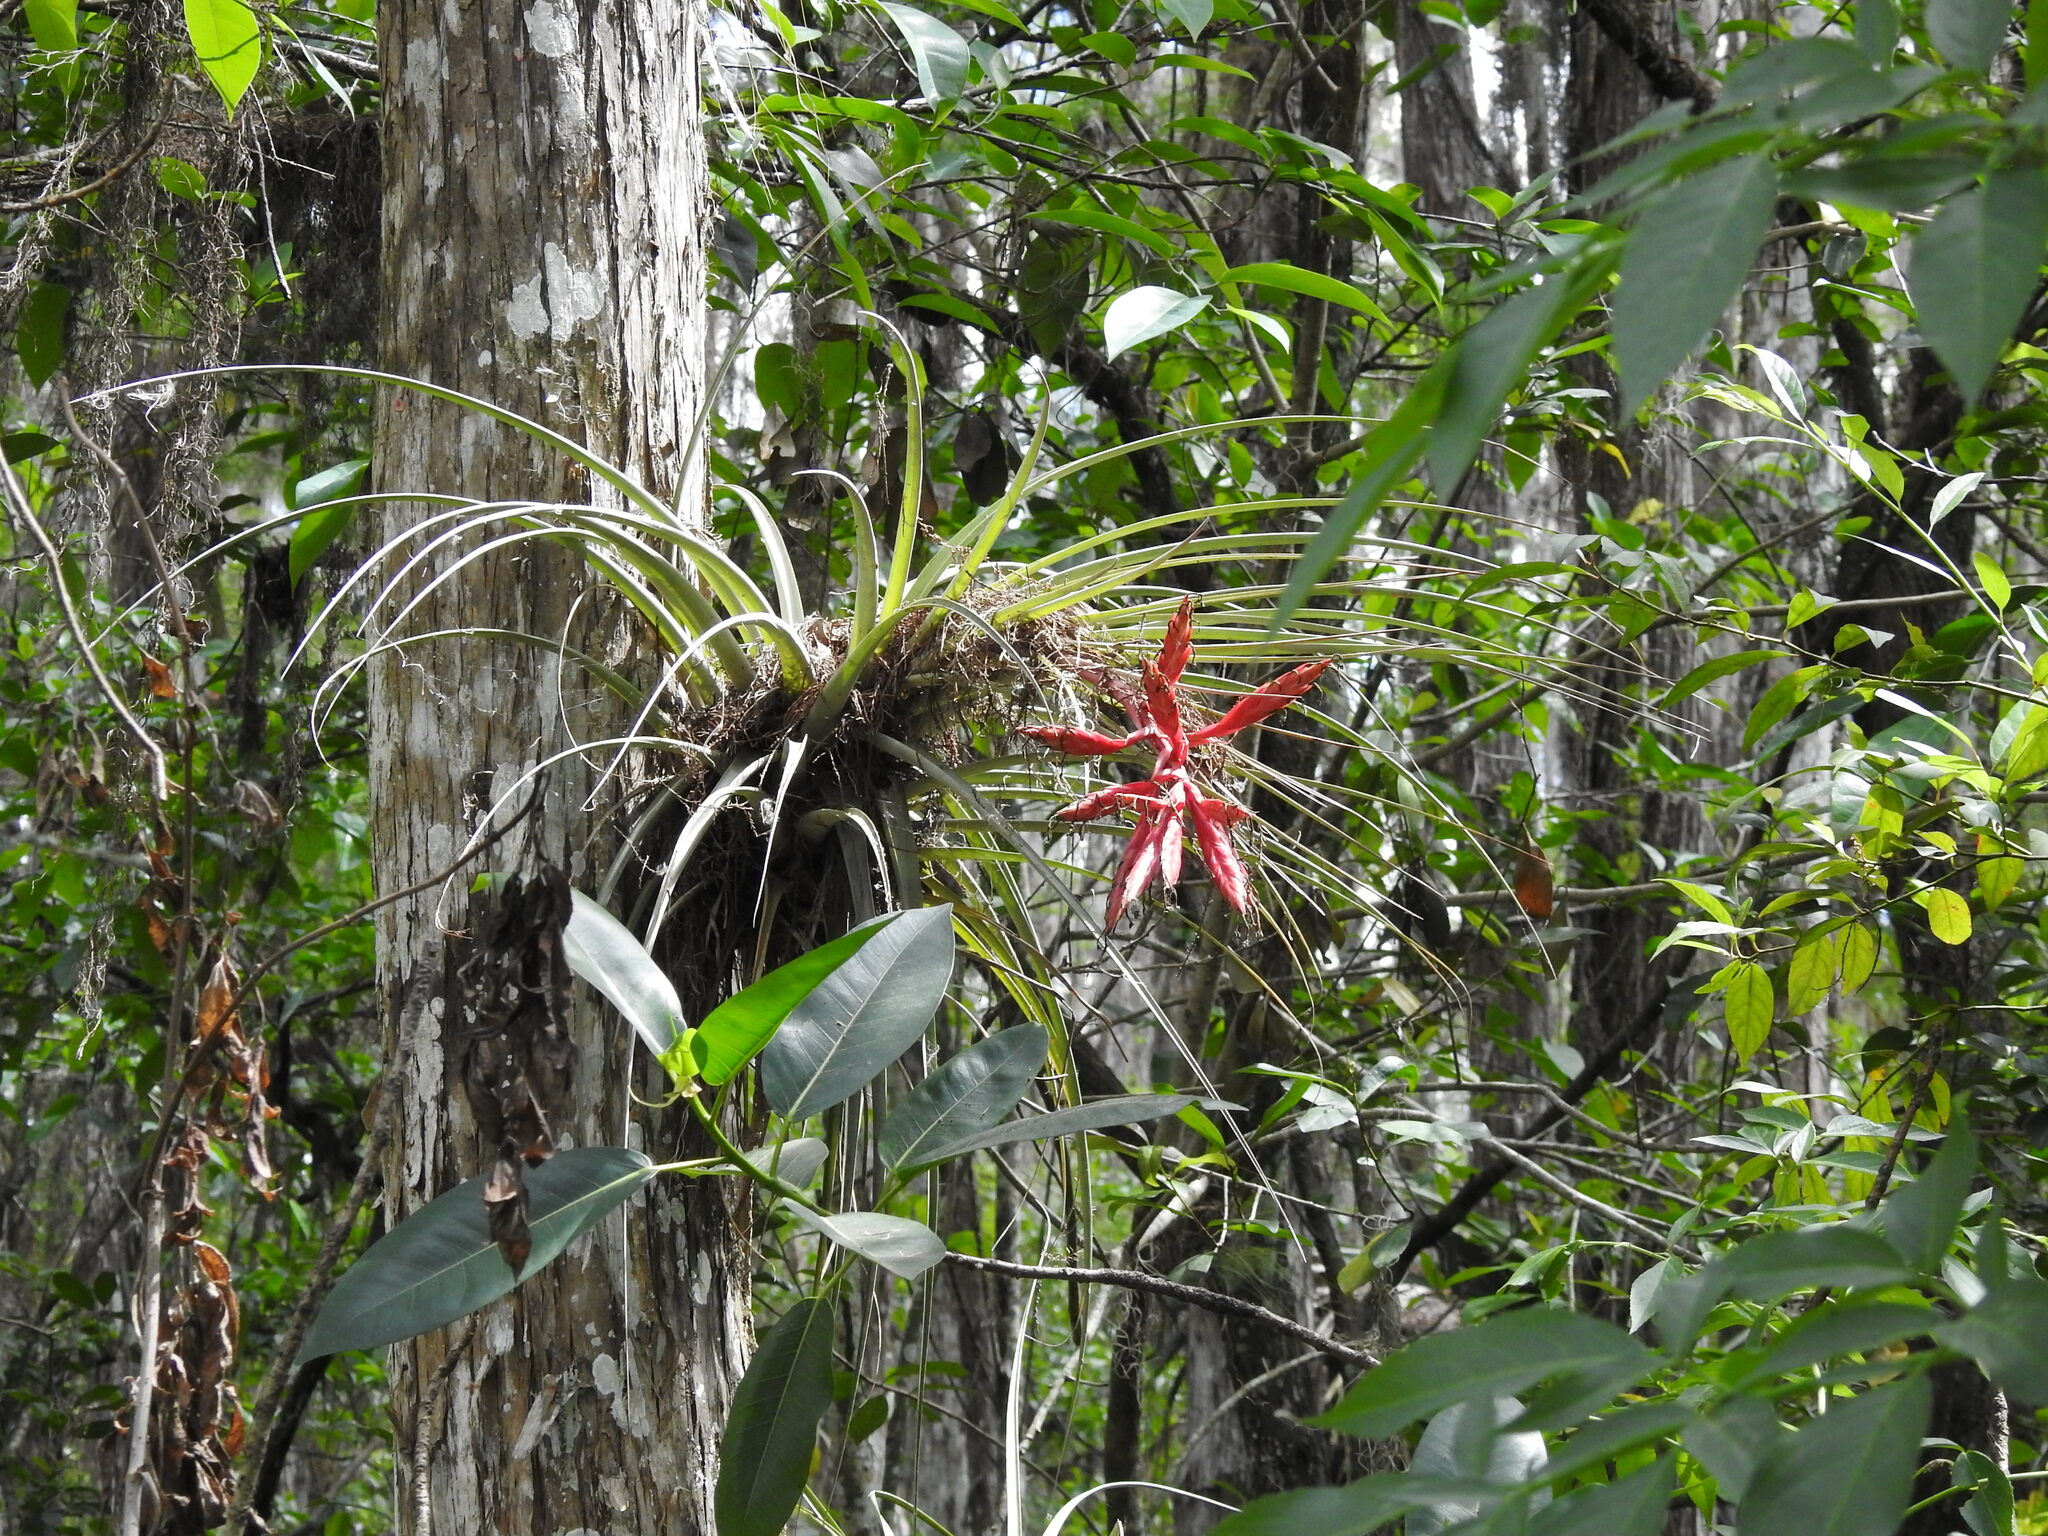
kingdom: Plantae
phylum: Tracheophyta
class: Liliopsida
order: Poales
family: Bromeliaceae
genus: Tillandsia
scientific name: Tillandsia fasciculata
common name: Giant airplant
